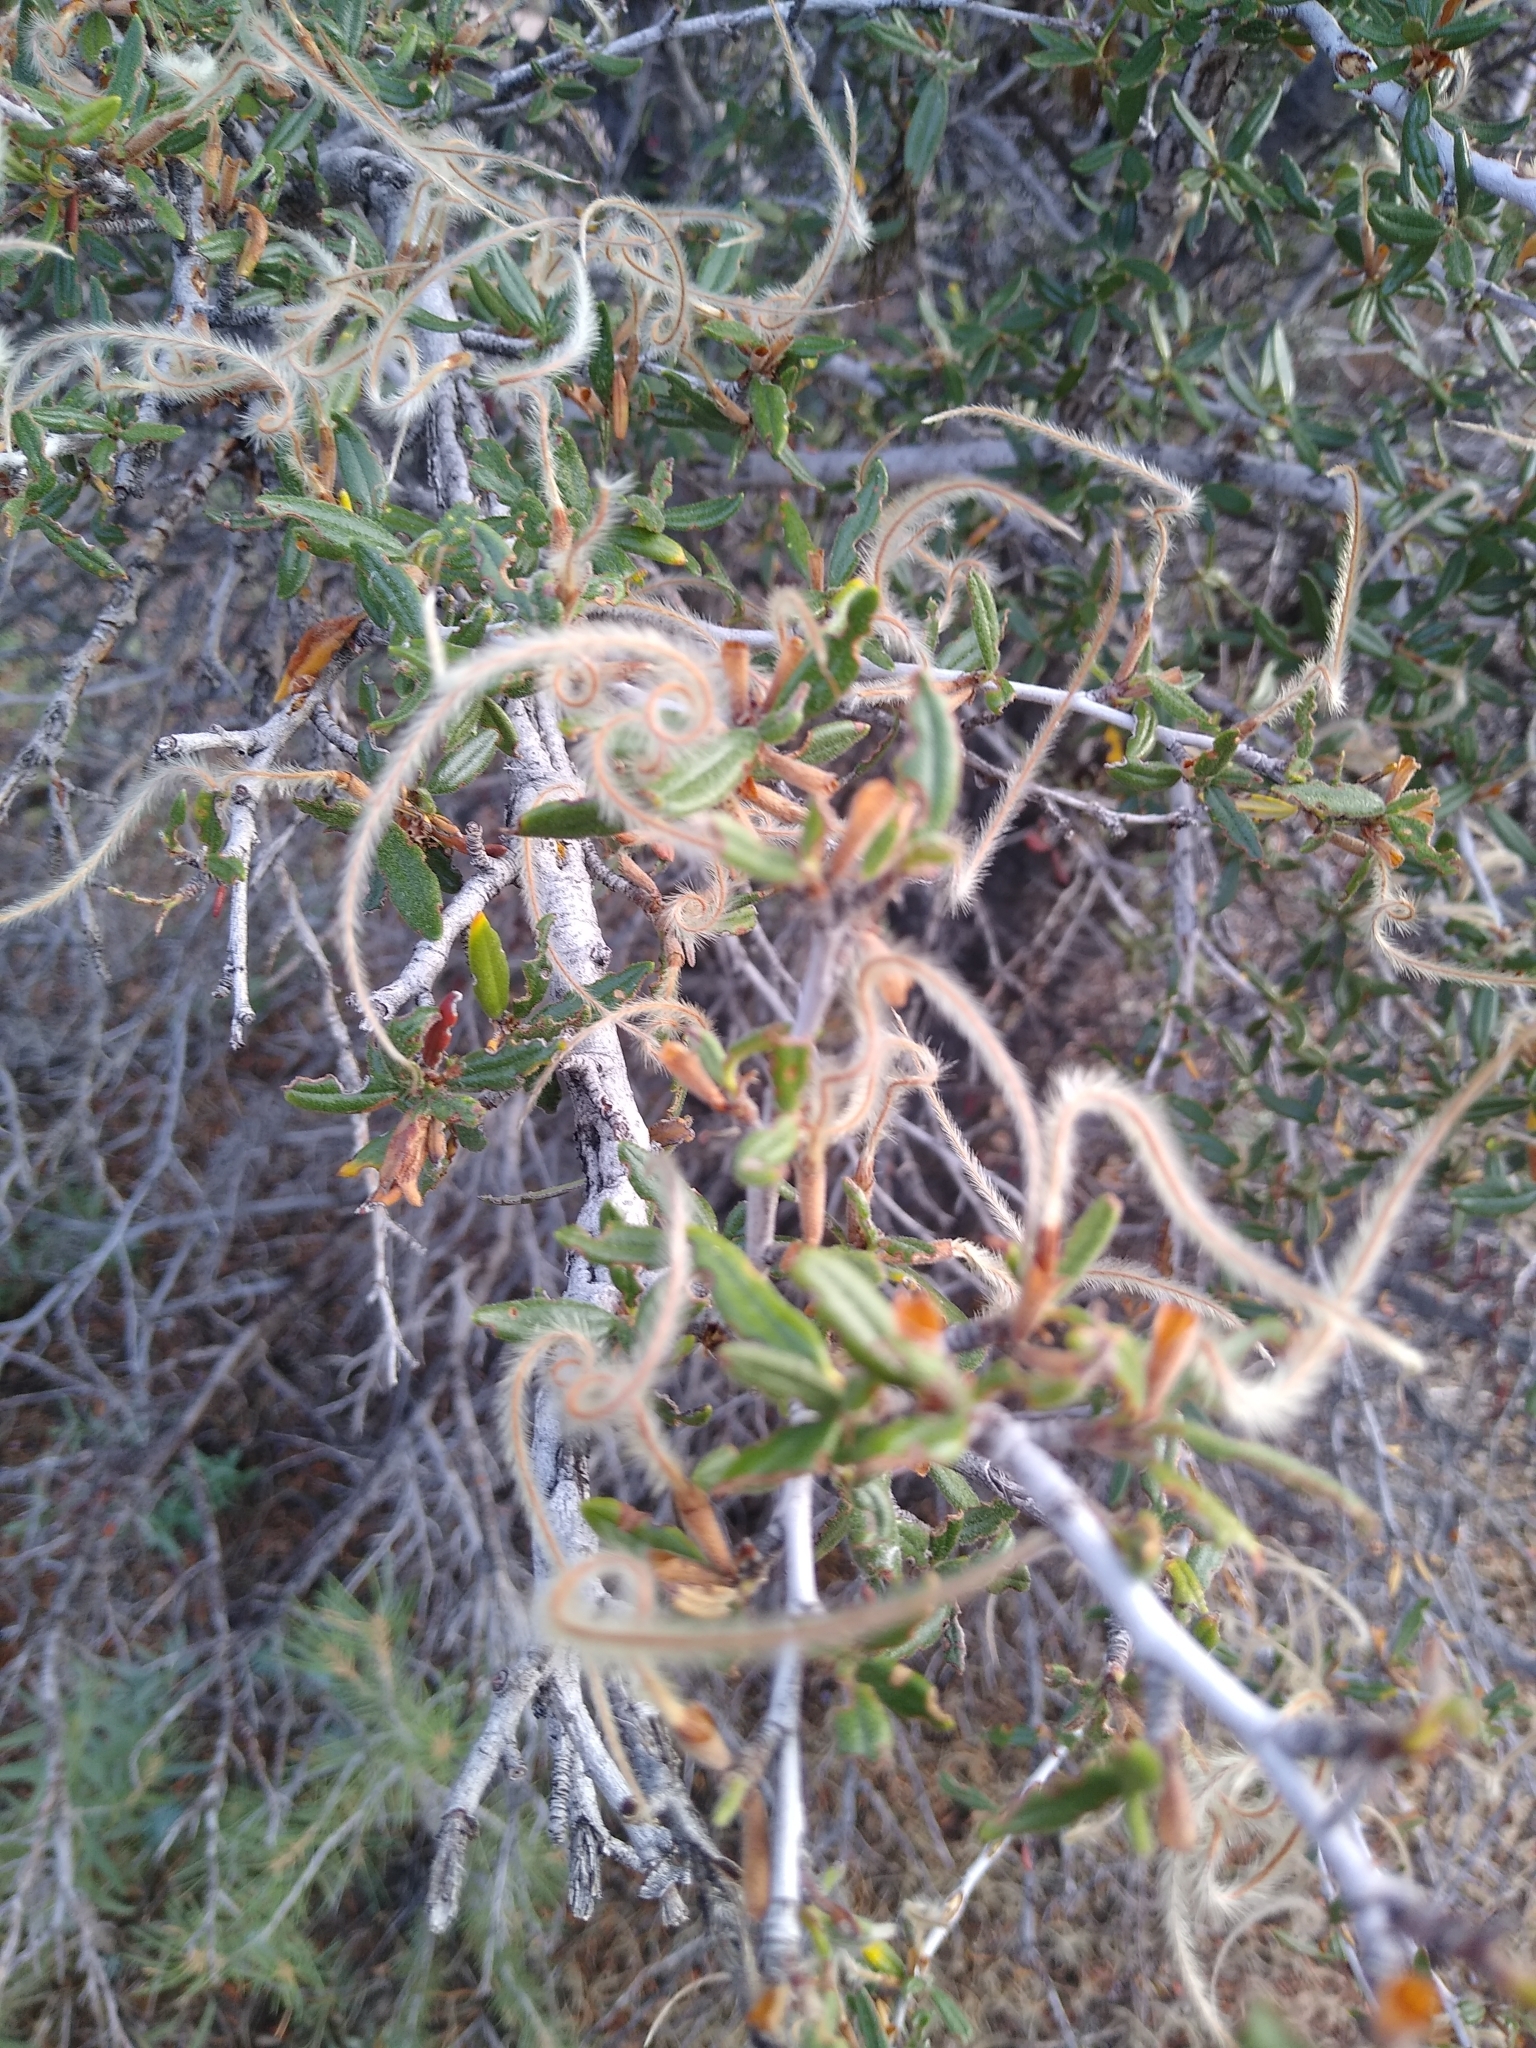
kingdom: Plantae
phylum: Tracheophyta
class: Magnoliopsida
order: Rosales
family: Rosaceae
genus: Cercocarpus
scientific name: Cercocarpus ledifolius
